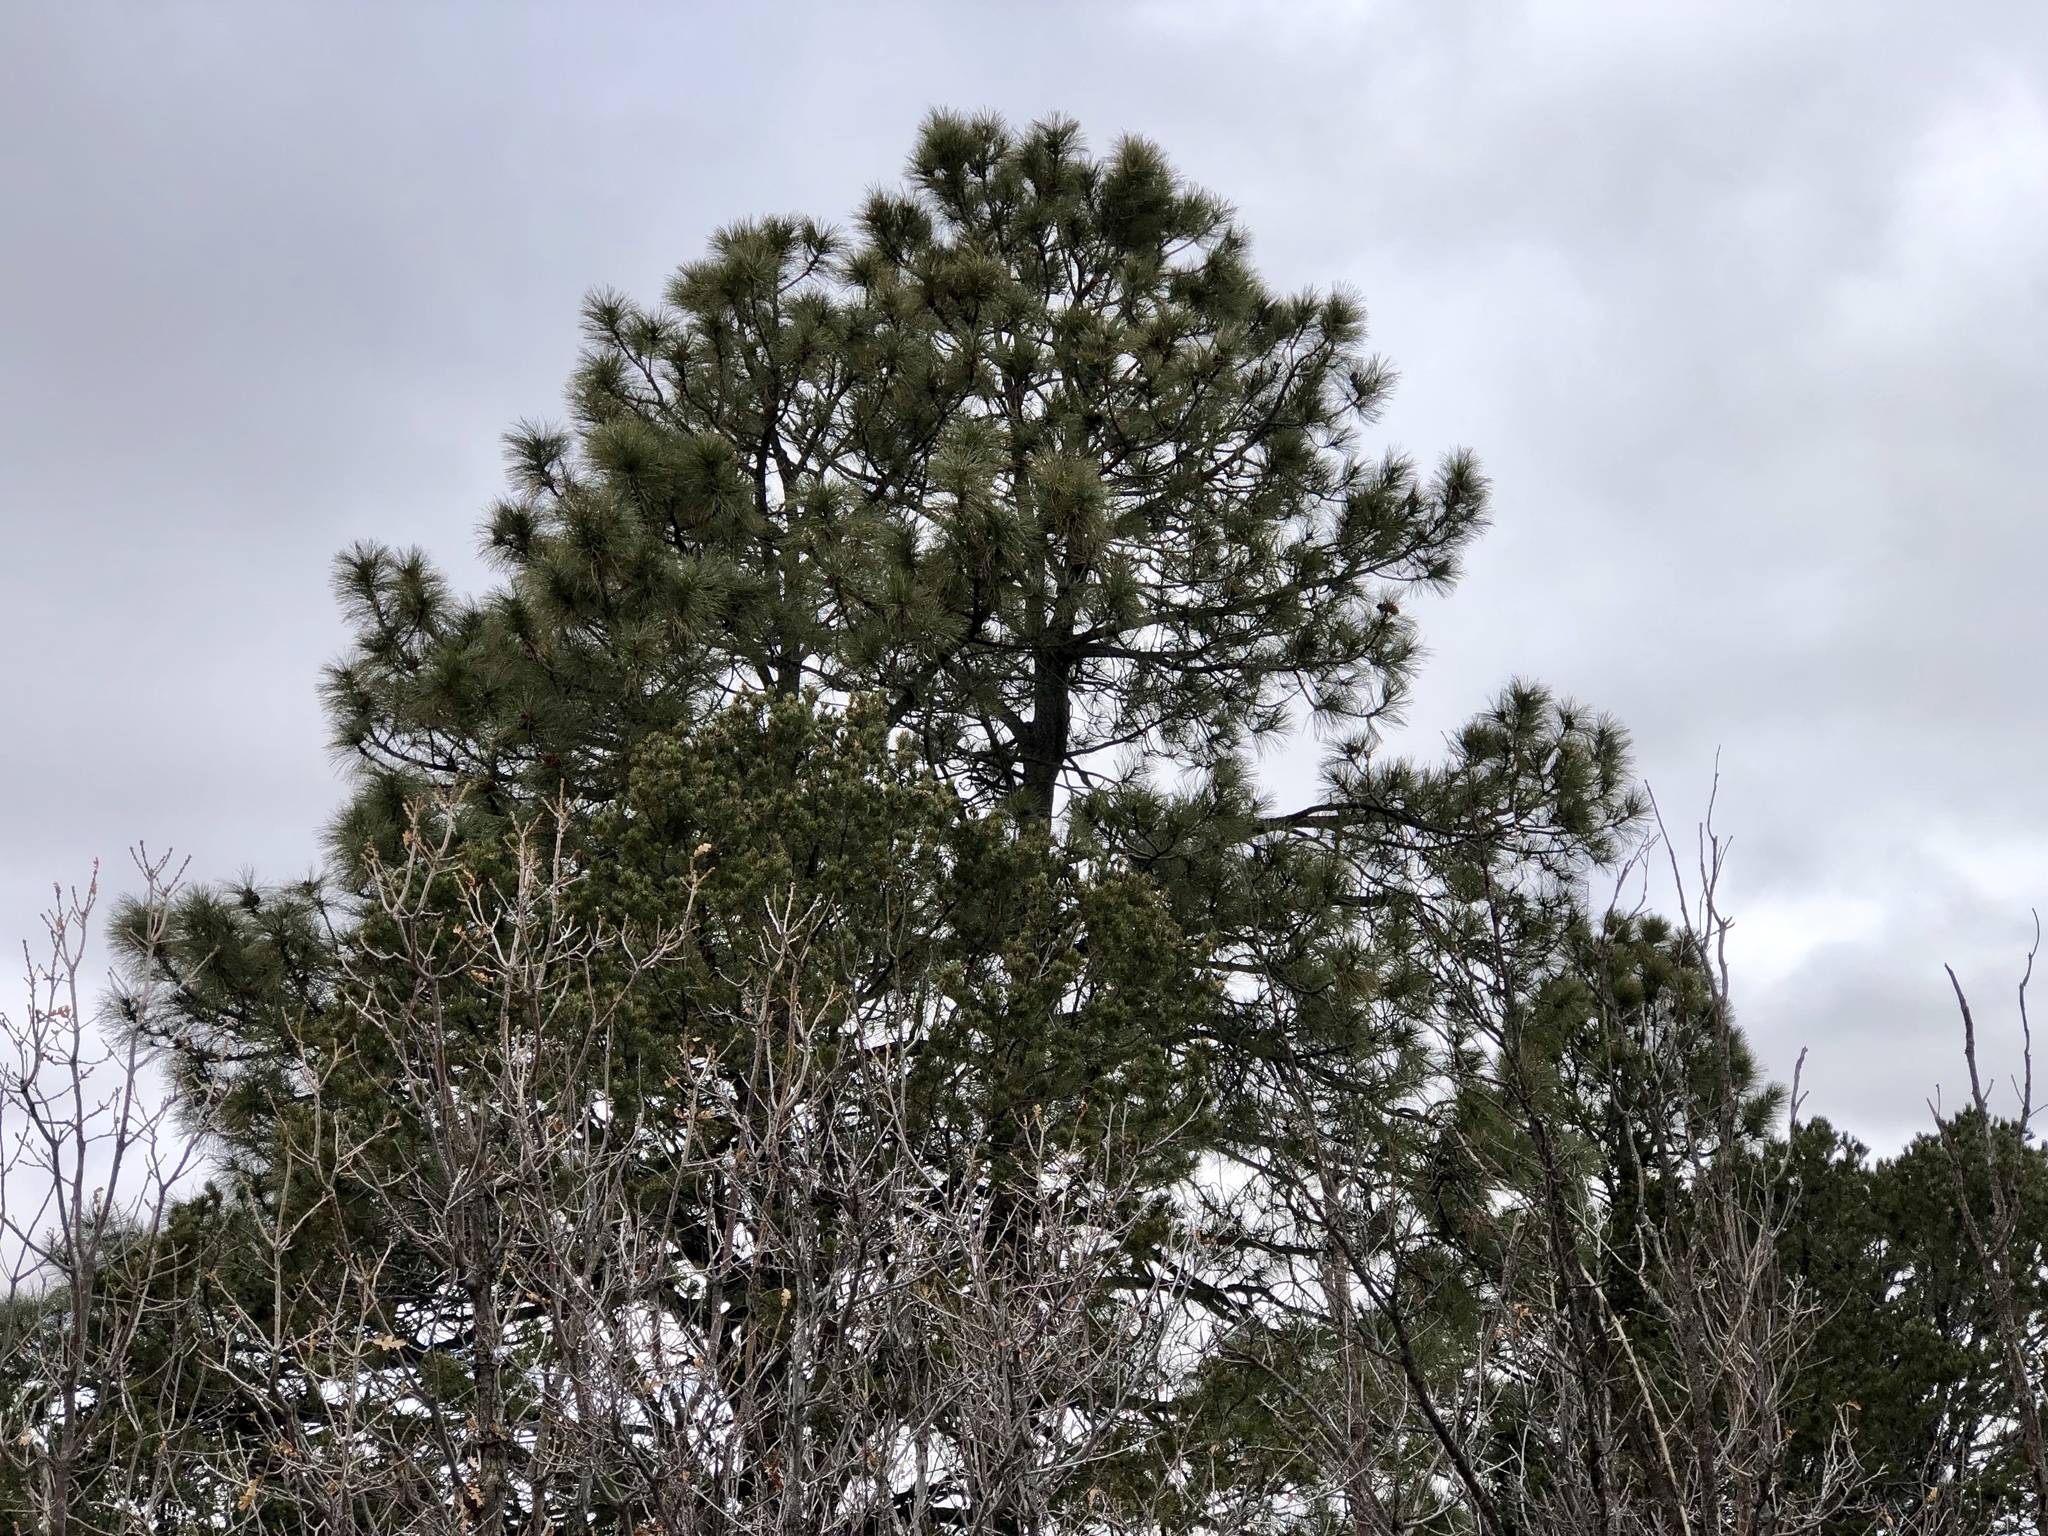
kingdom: Plantae
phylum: Tracheophyta
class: Pinopsida
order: Pinales
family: Pinaceae
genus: Pinus
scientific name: Pinus ponderosa
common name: Western yellow-pine
